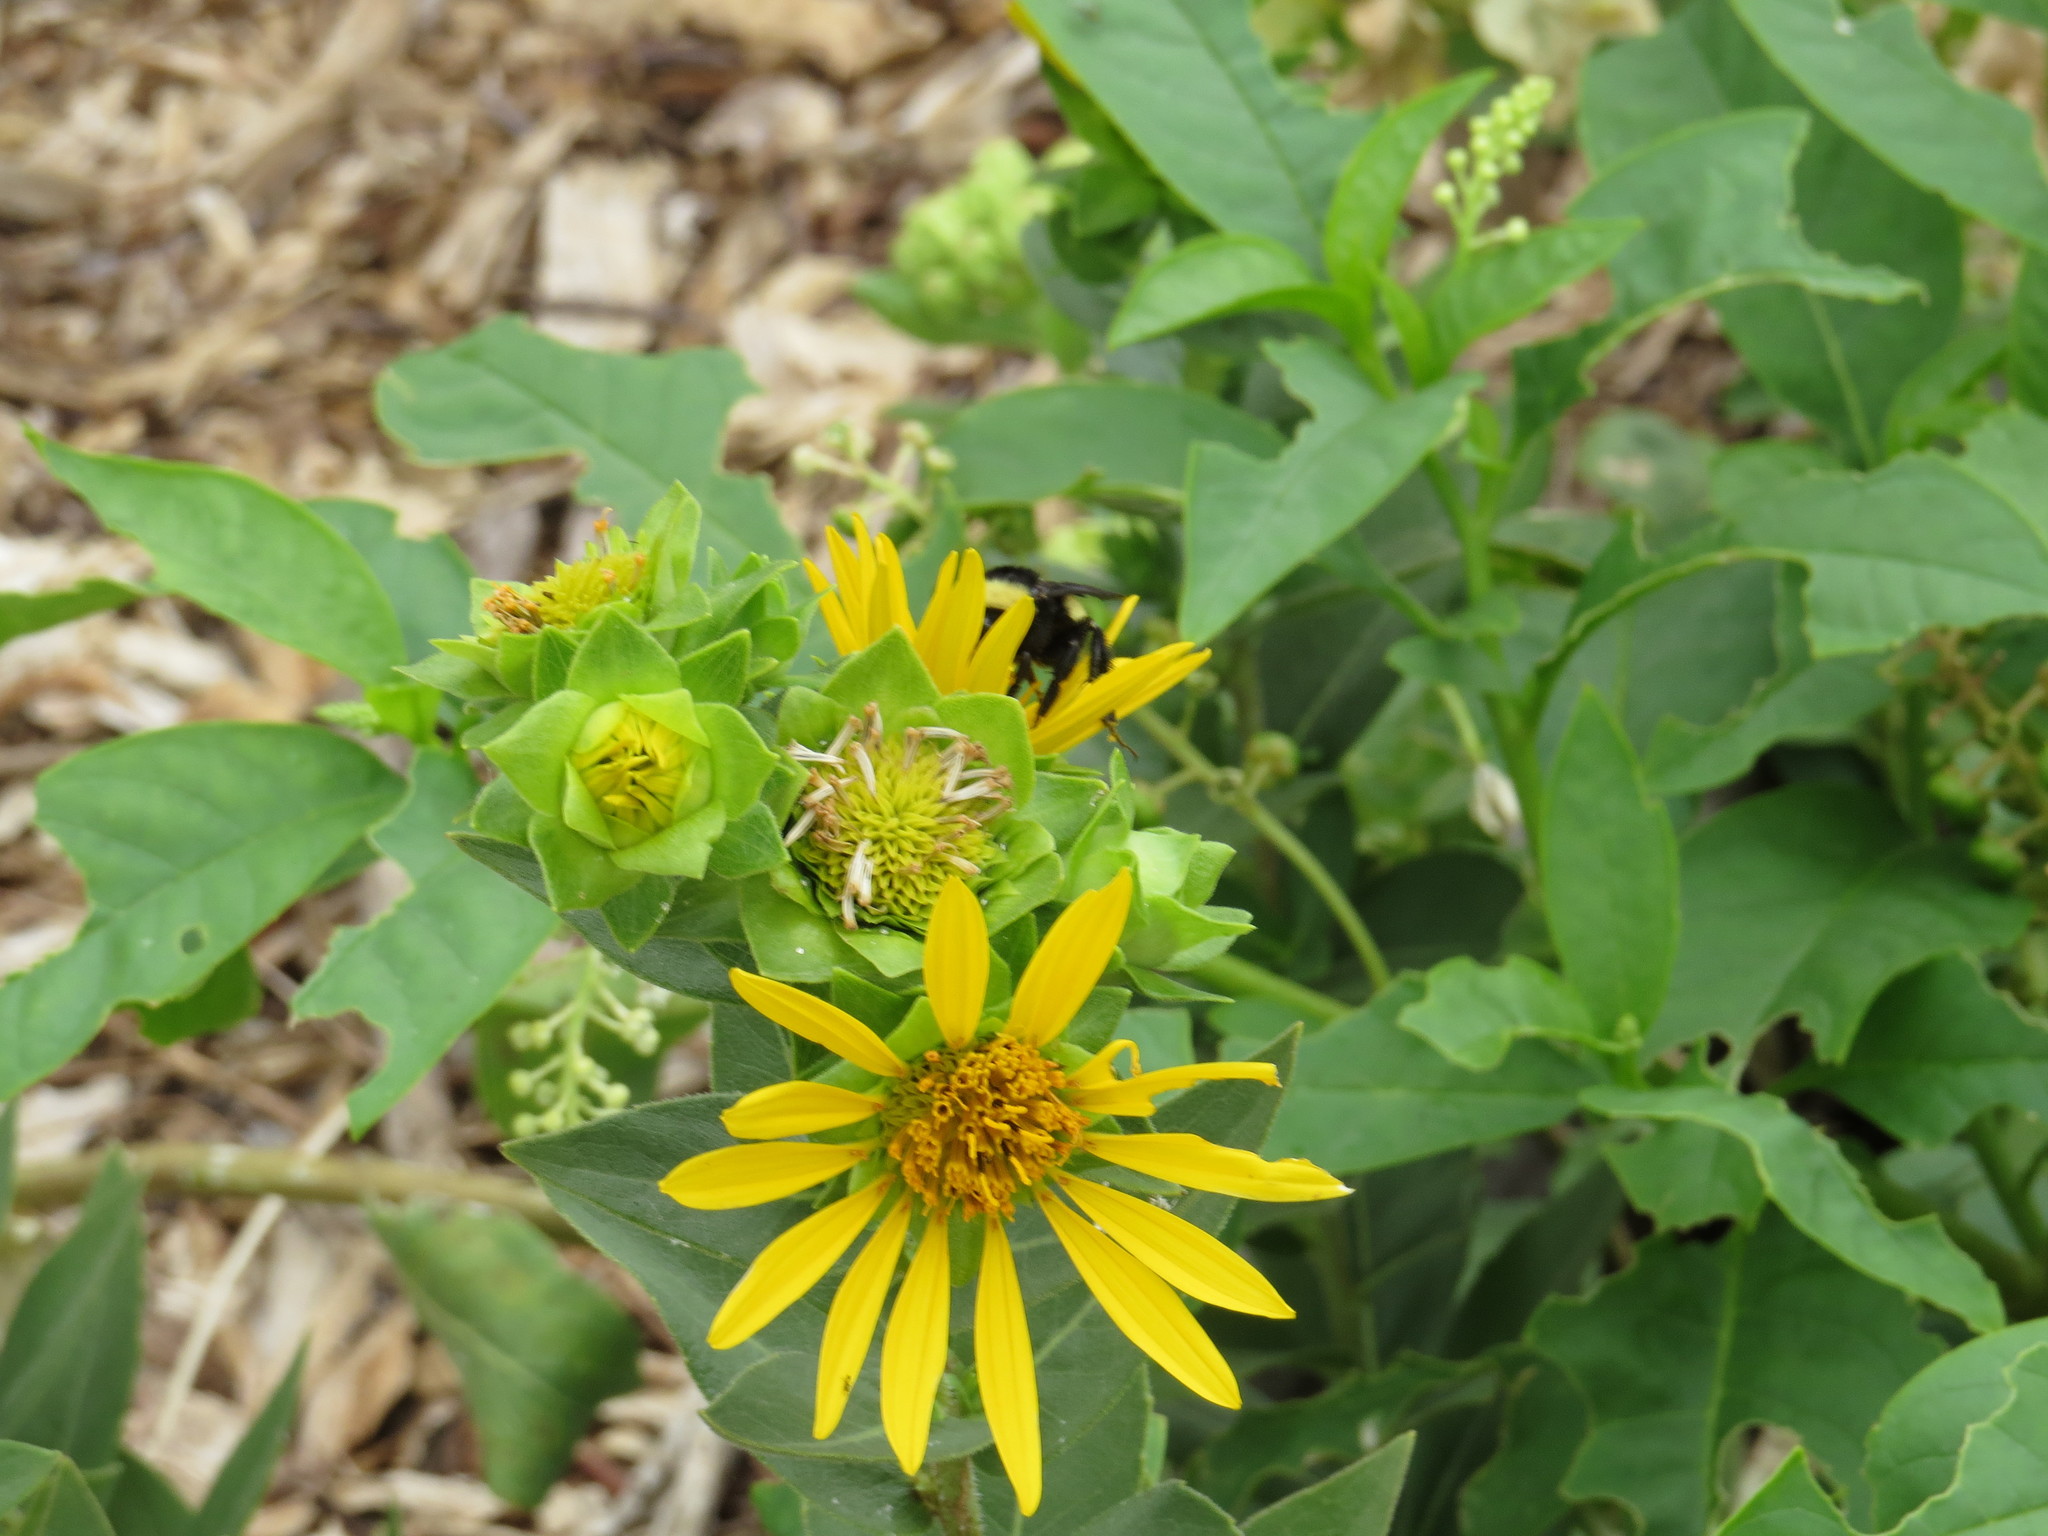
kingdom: Plantae
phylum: Tracheophyta
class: Magnoliopsida
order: Asterales
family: Asteraceae
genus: Silphium
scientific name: Silphium radula
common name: Roughleaf rosinweed
